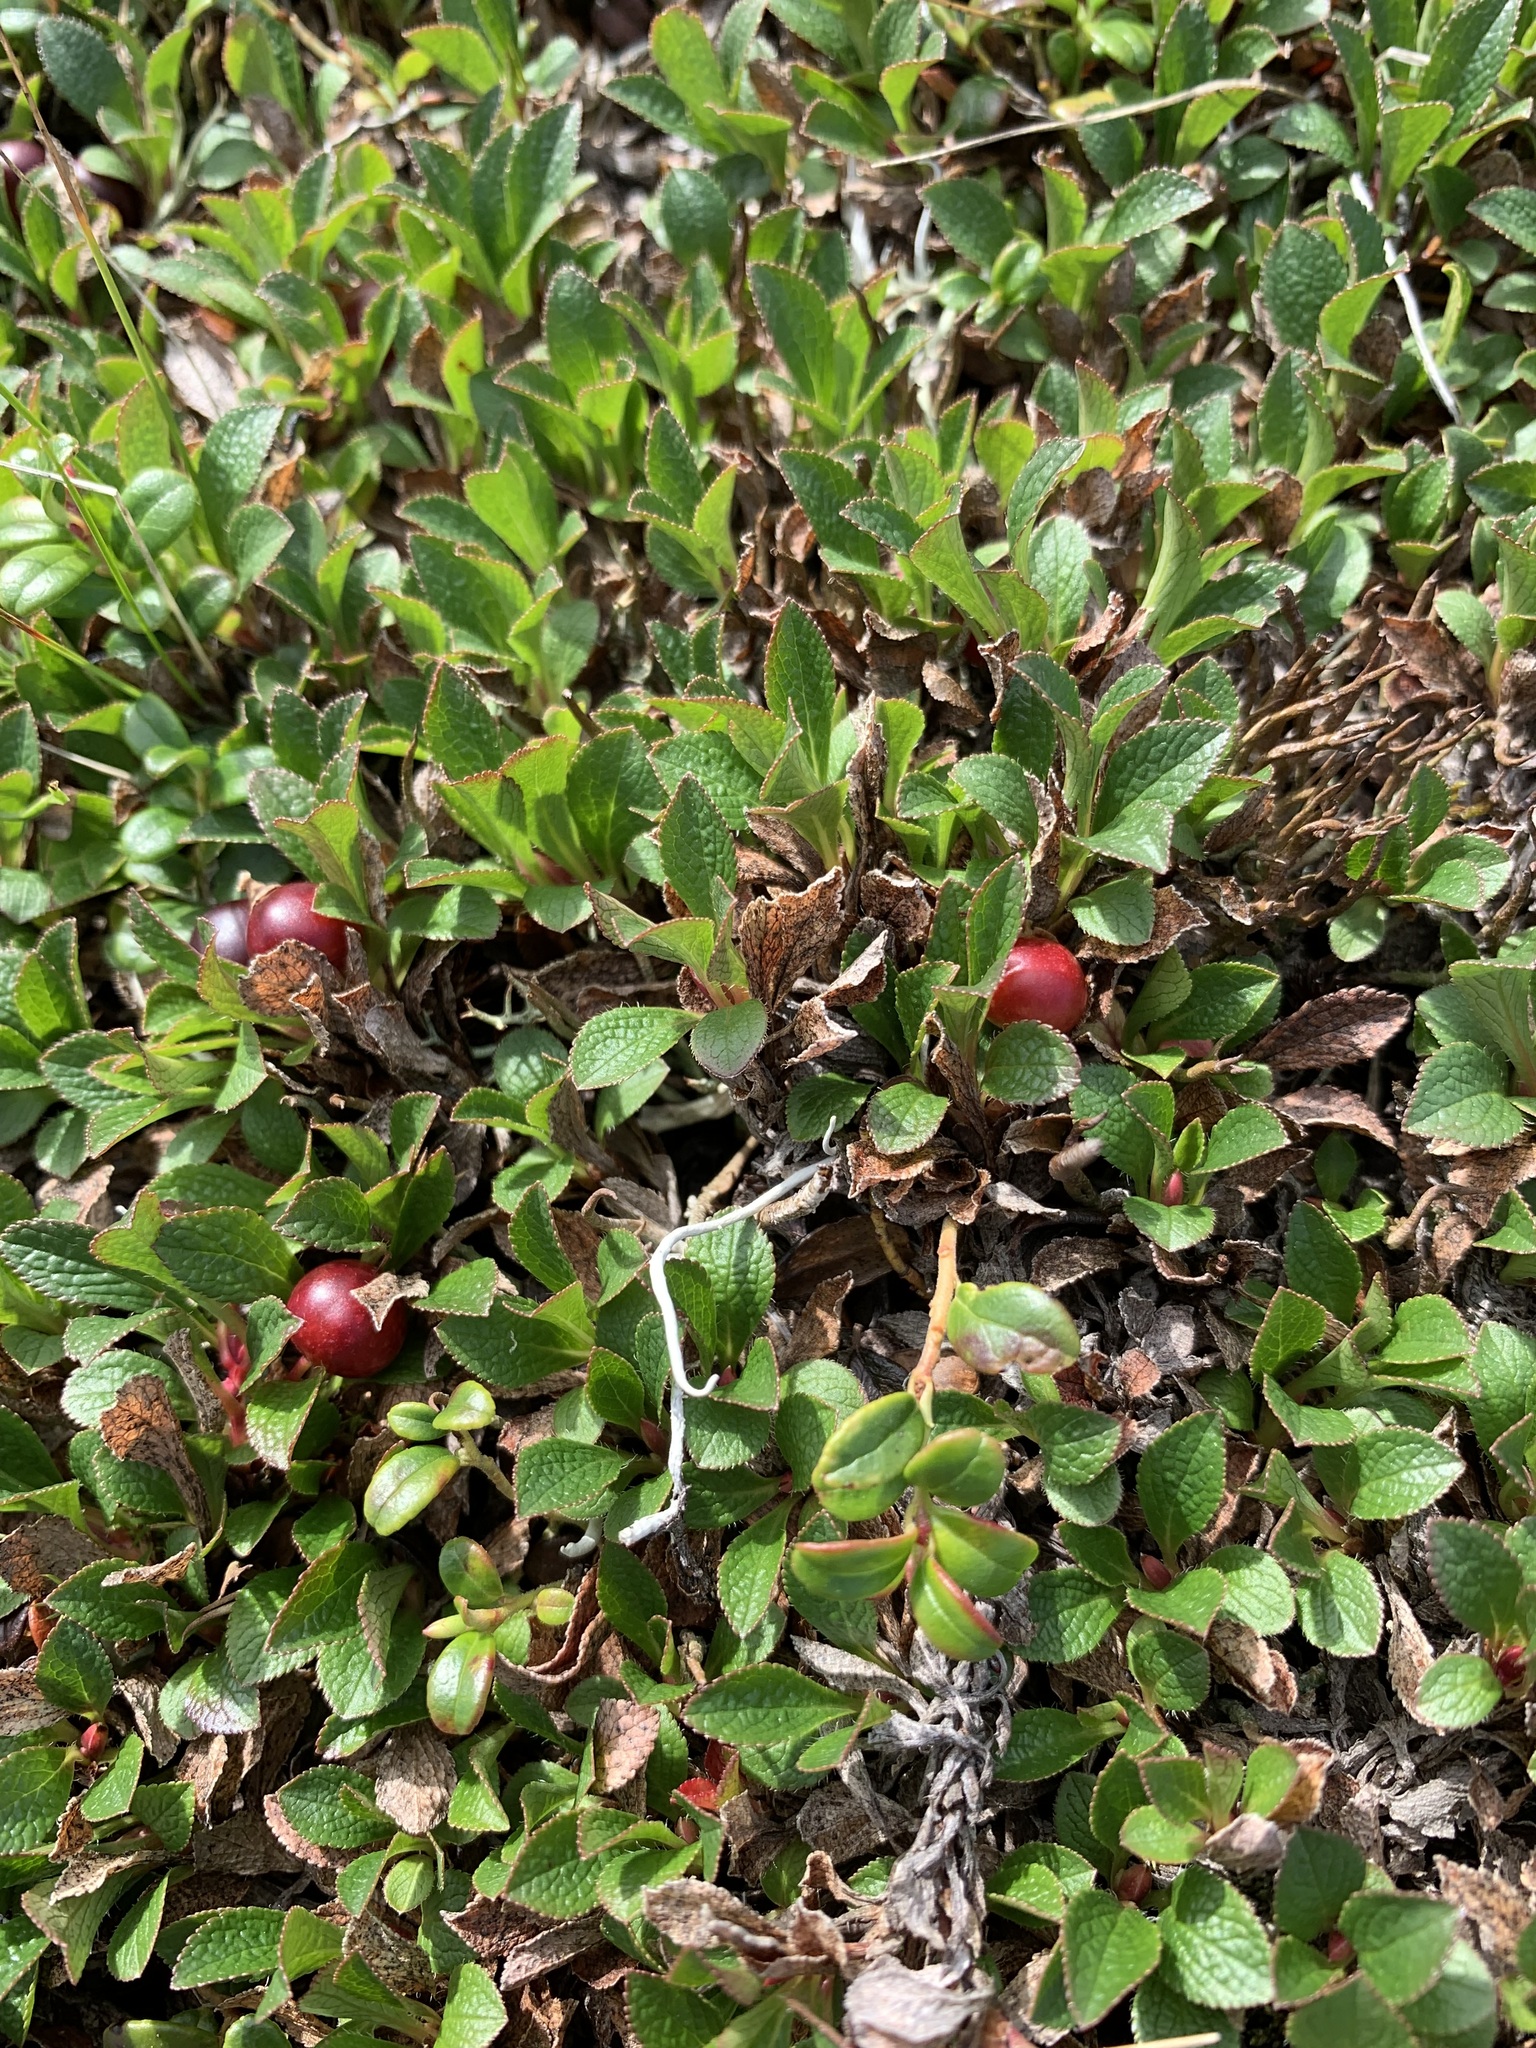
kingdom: Plantae
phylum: Tracheophyta
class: Magnoliopsida
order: Ericales
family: Ericaceae
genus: Arctostaphylos
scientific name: Arctostaphylos alpinus
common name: Alpine bearberry
